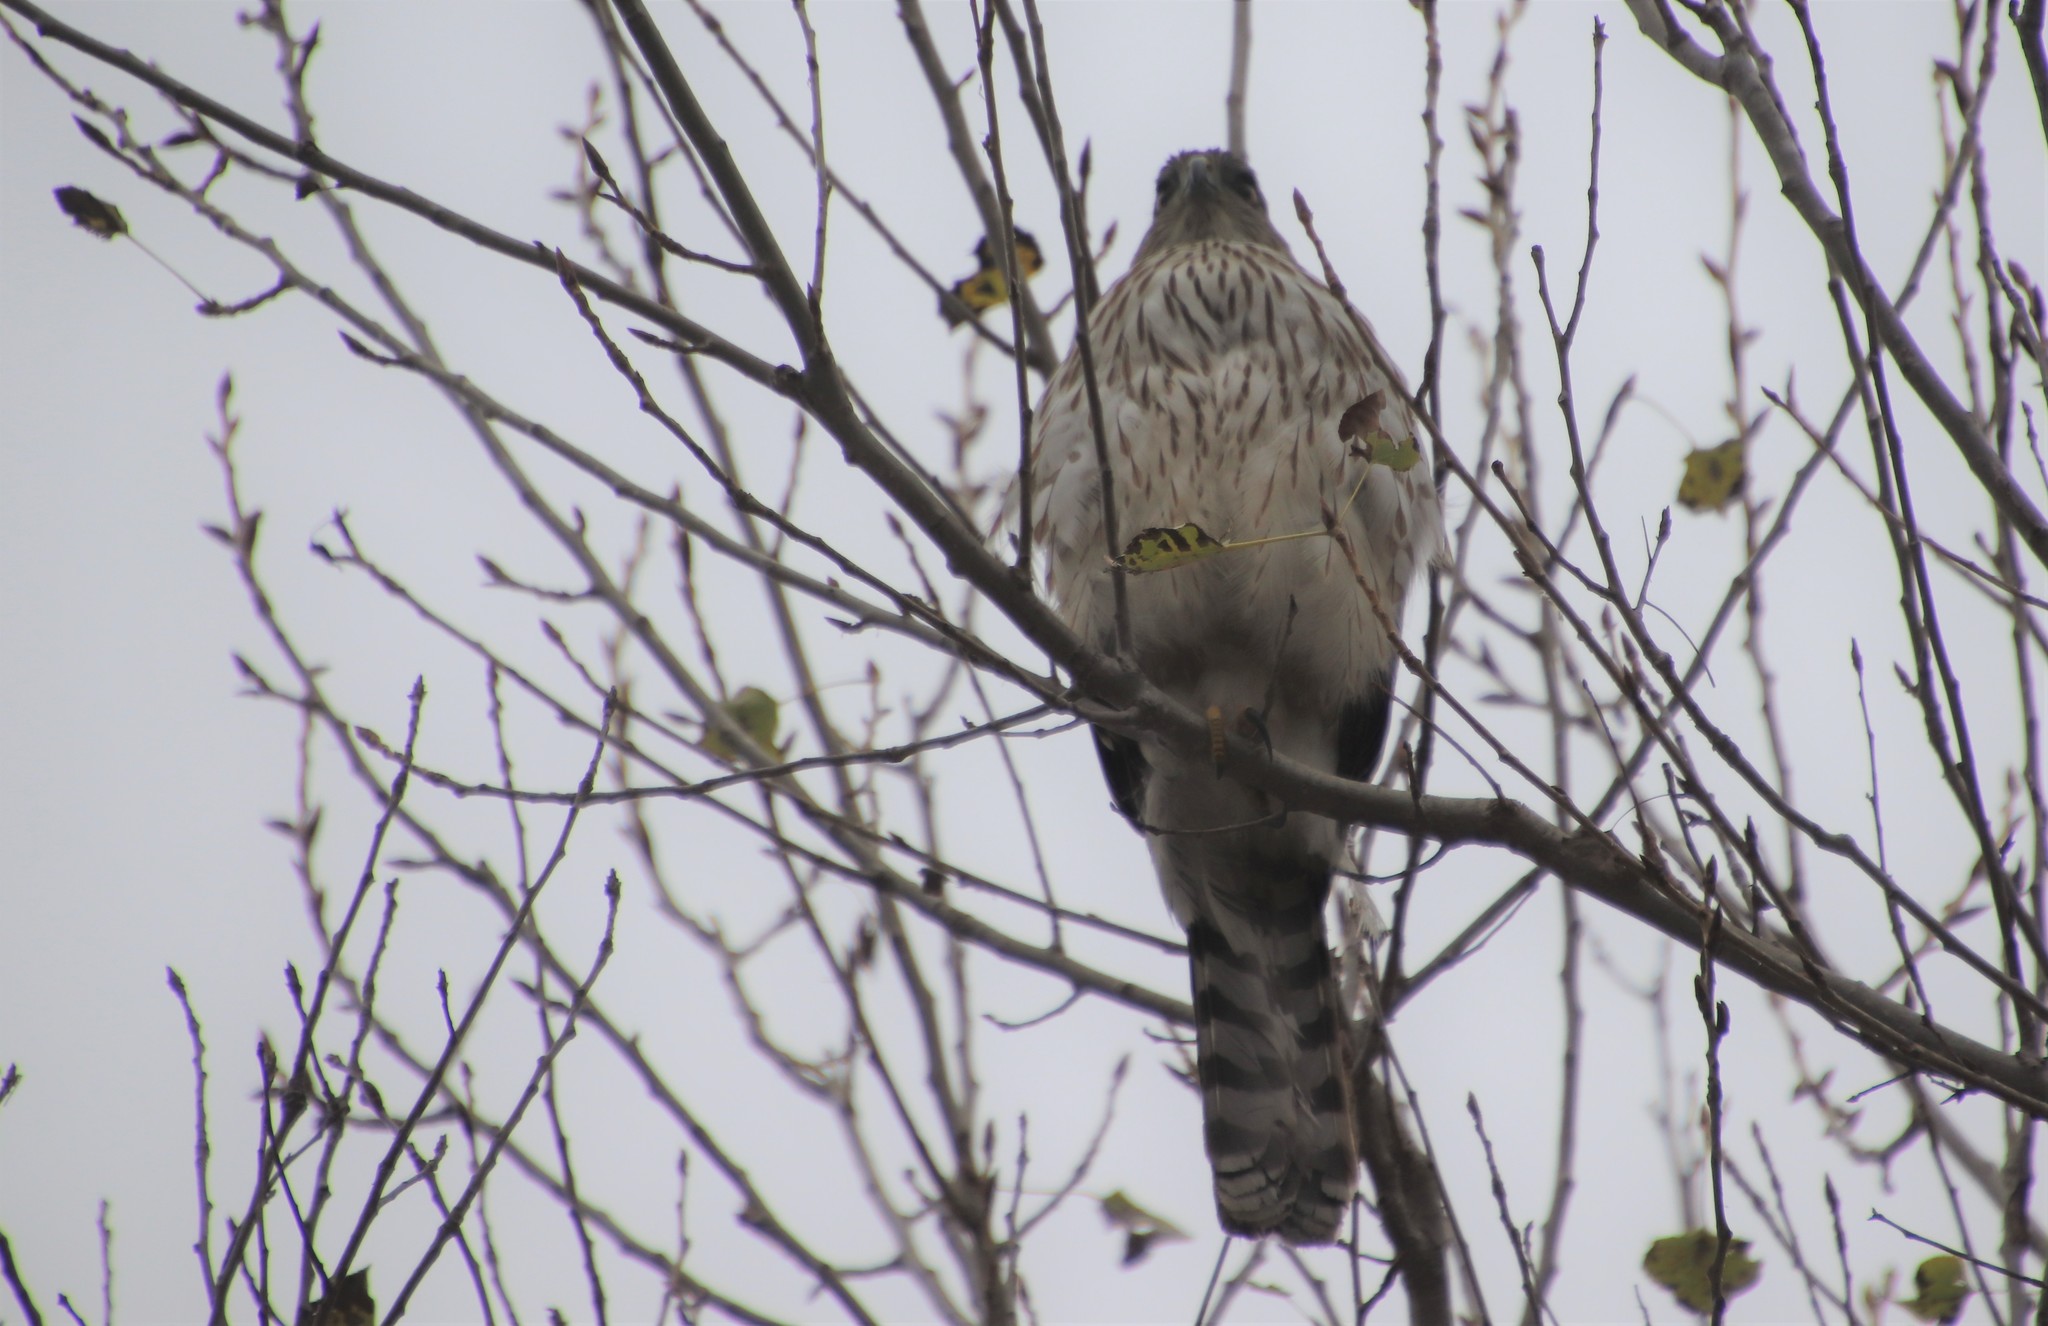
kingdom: Animalia
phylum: Chordata
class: Aves
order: Accipitriformes
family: Accipitridae
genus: Accipiter
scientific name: Accipiter cooperii
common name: Cooper's hawk
